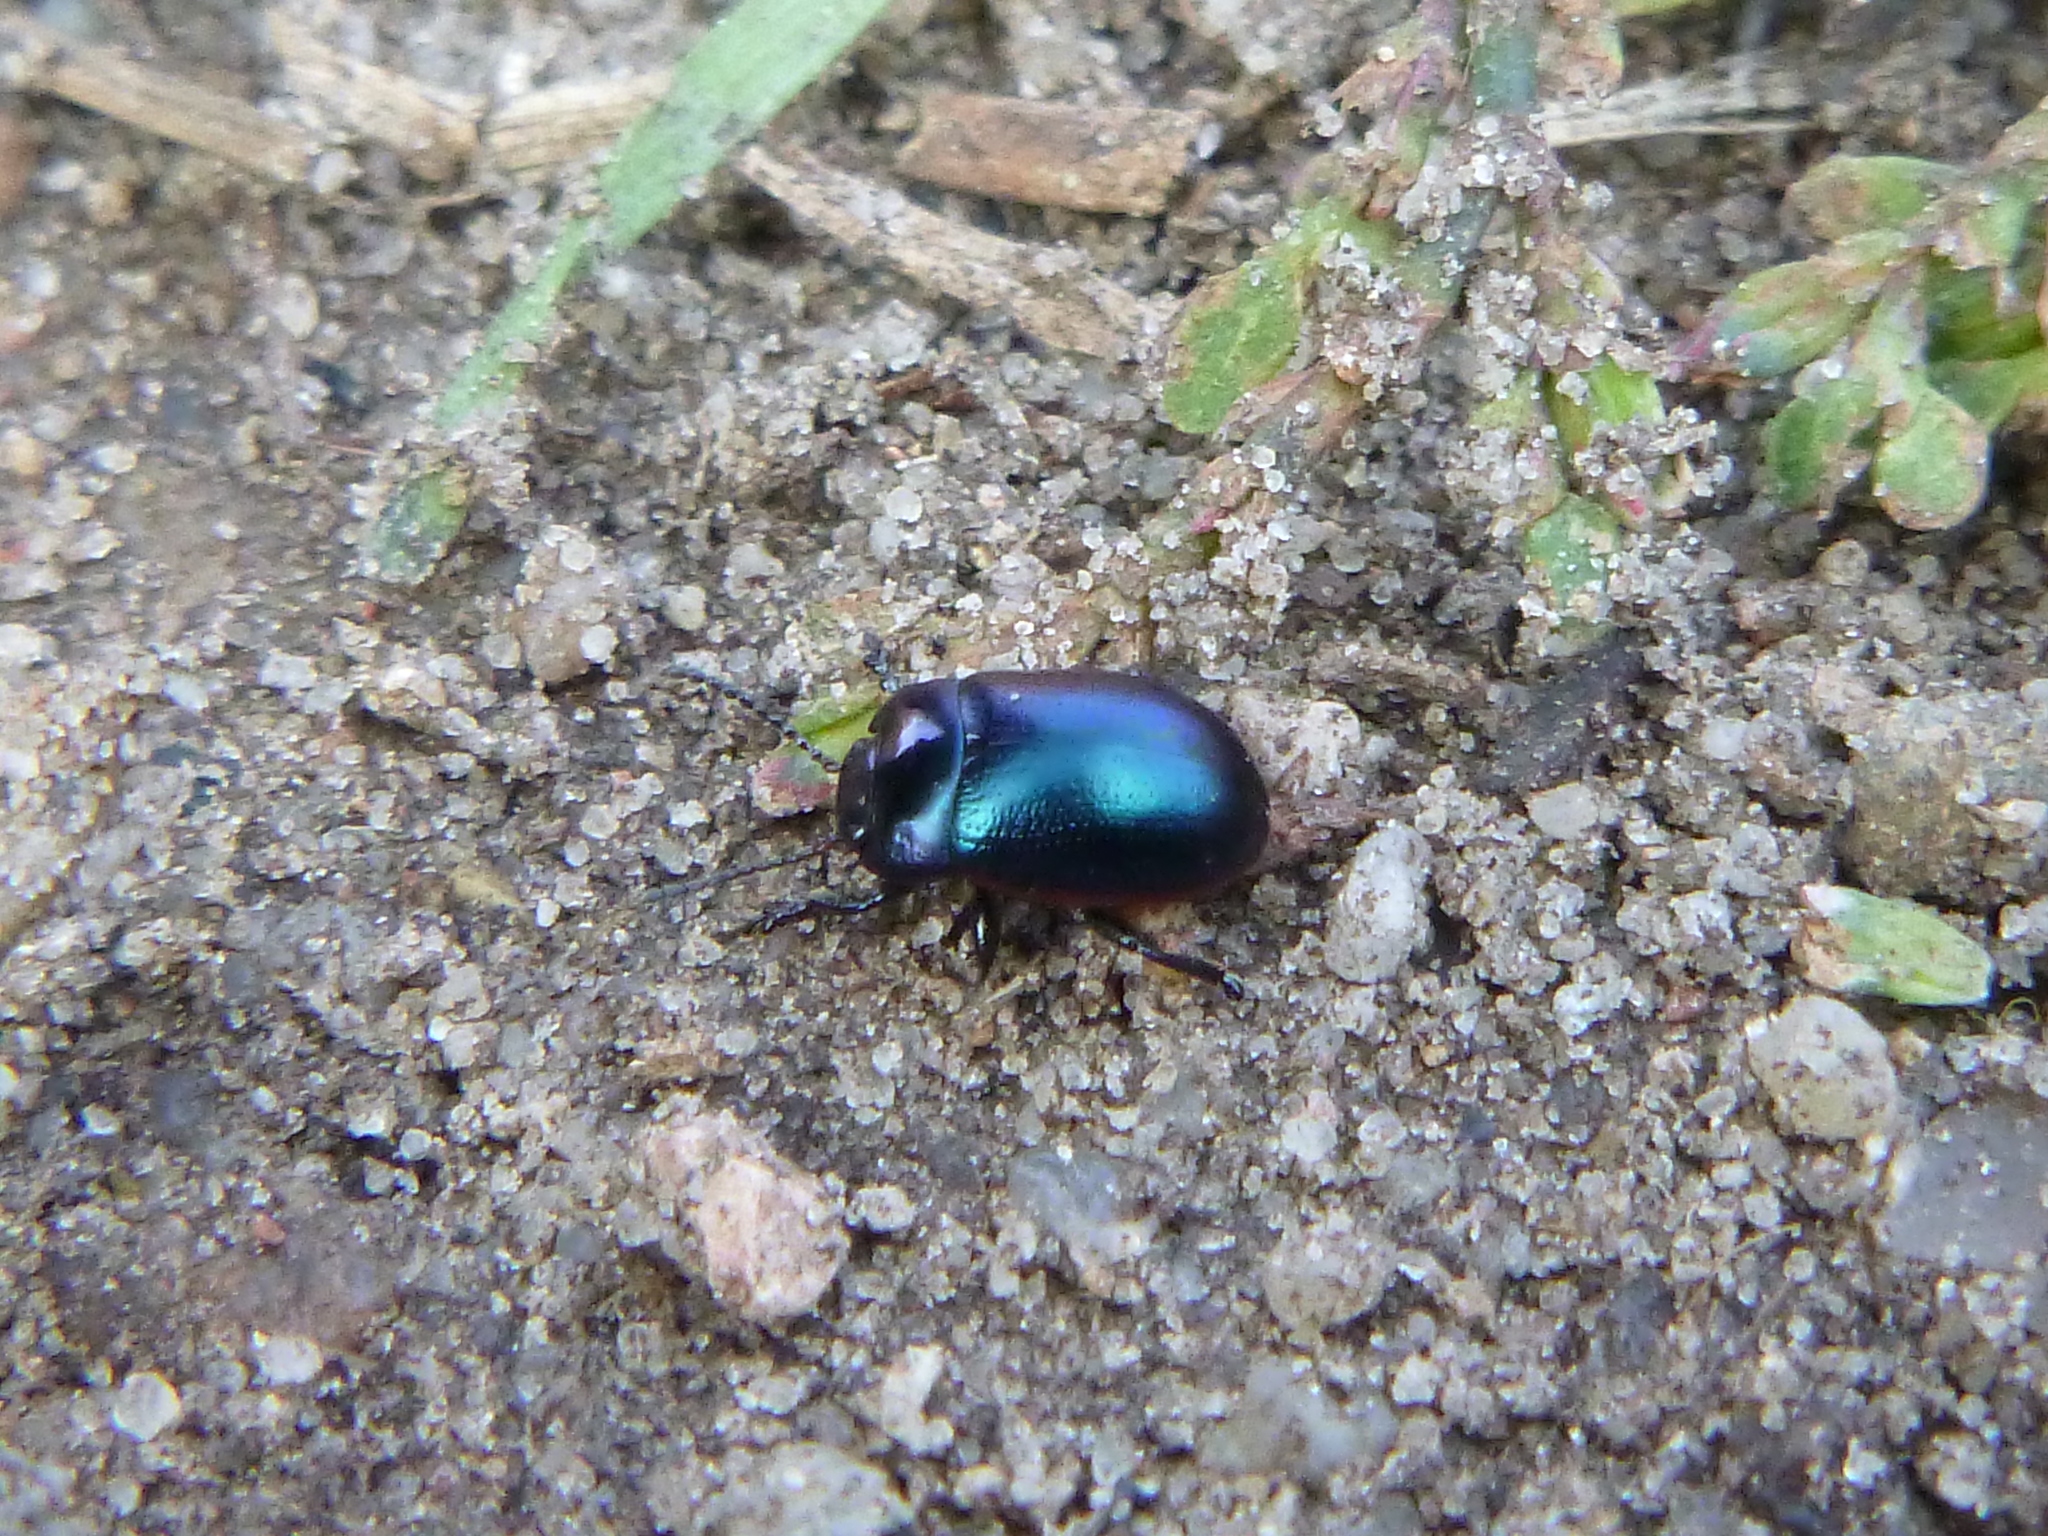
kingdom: Animalia
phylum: Arthropoda
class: Insecta
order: Coleoptera
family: Chrysomelidae
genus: Chrysolina
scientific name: Chrysolina analis
